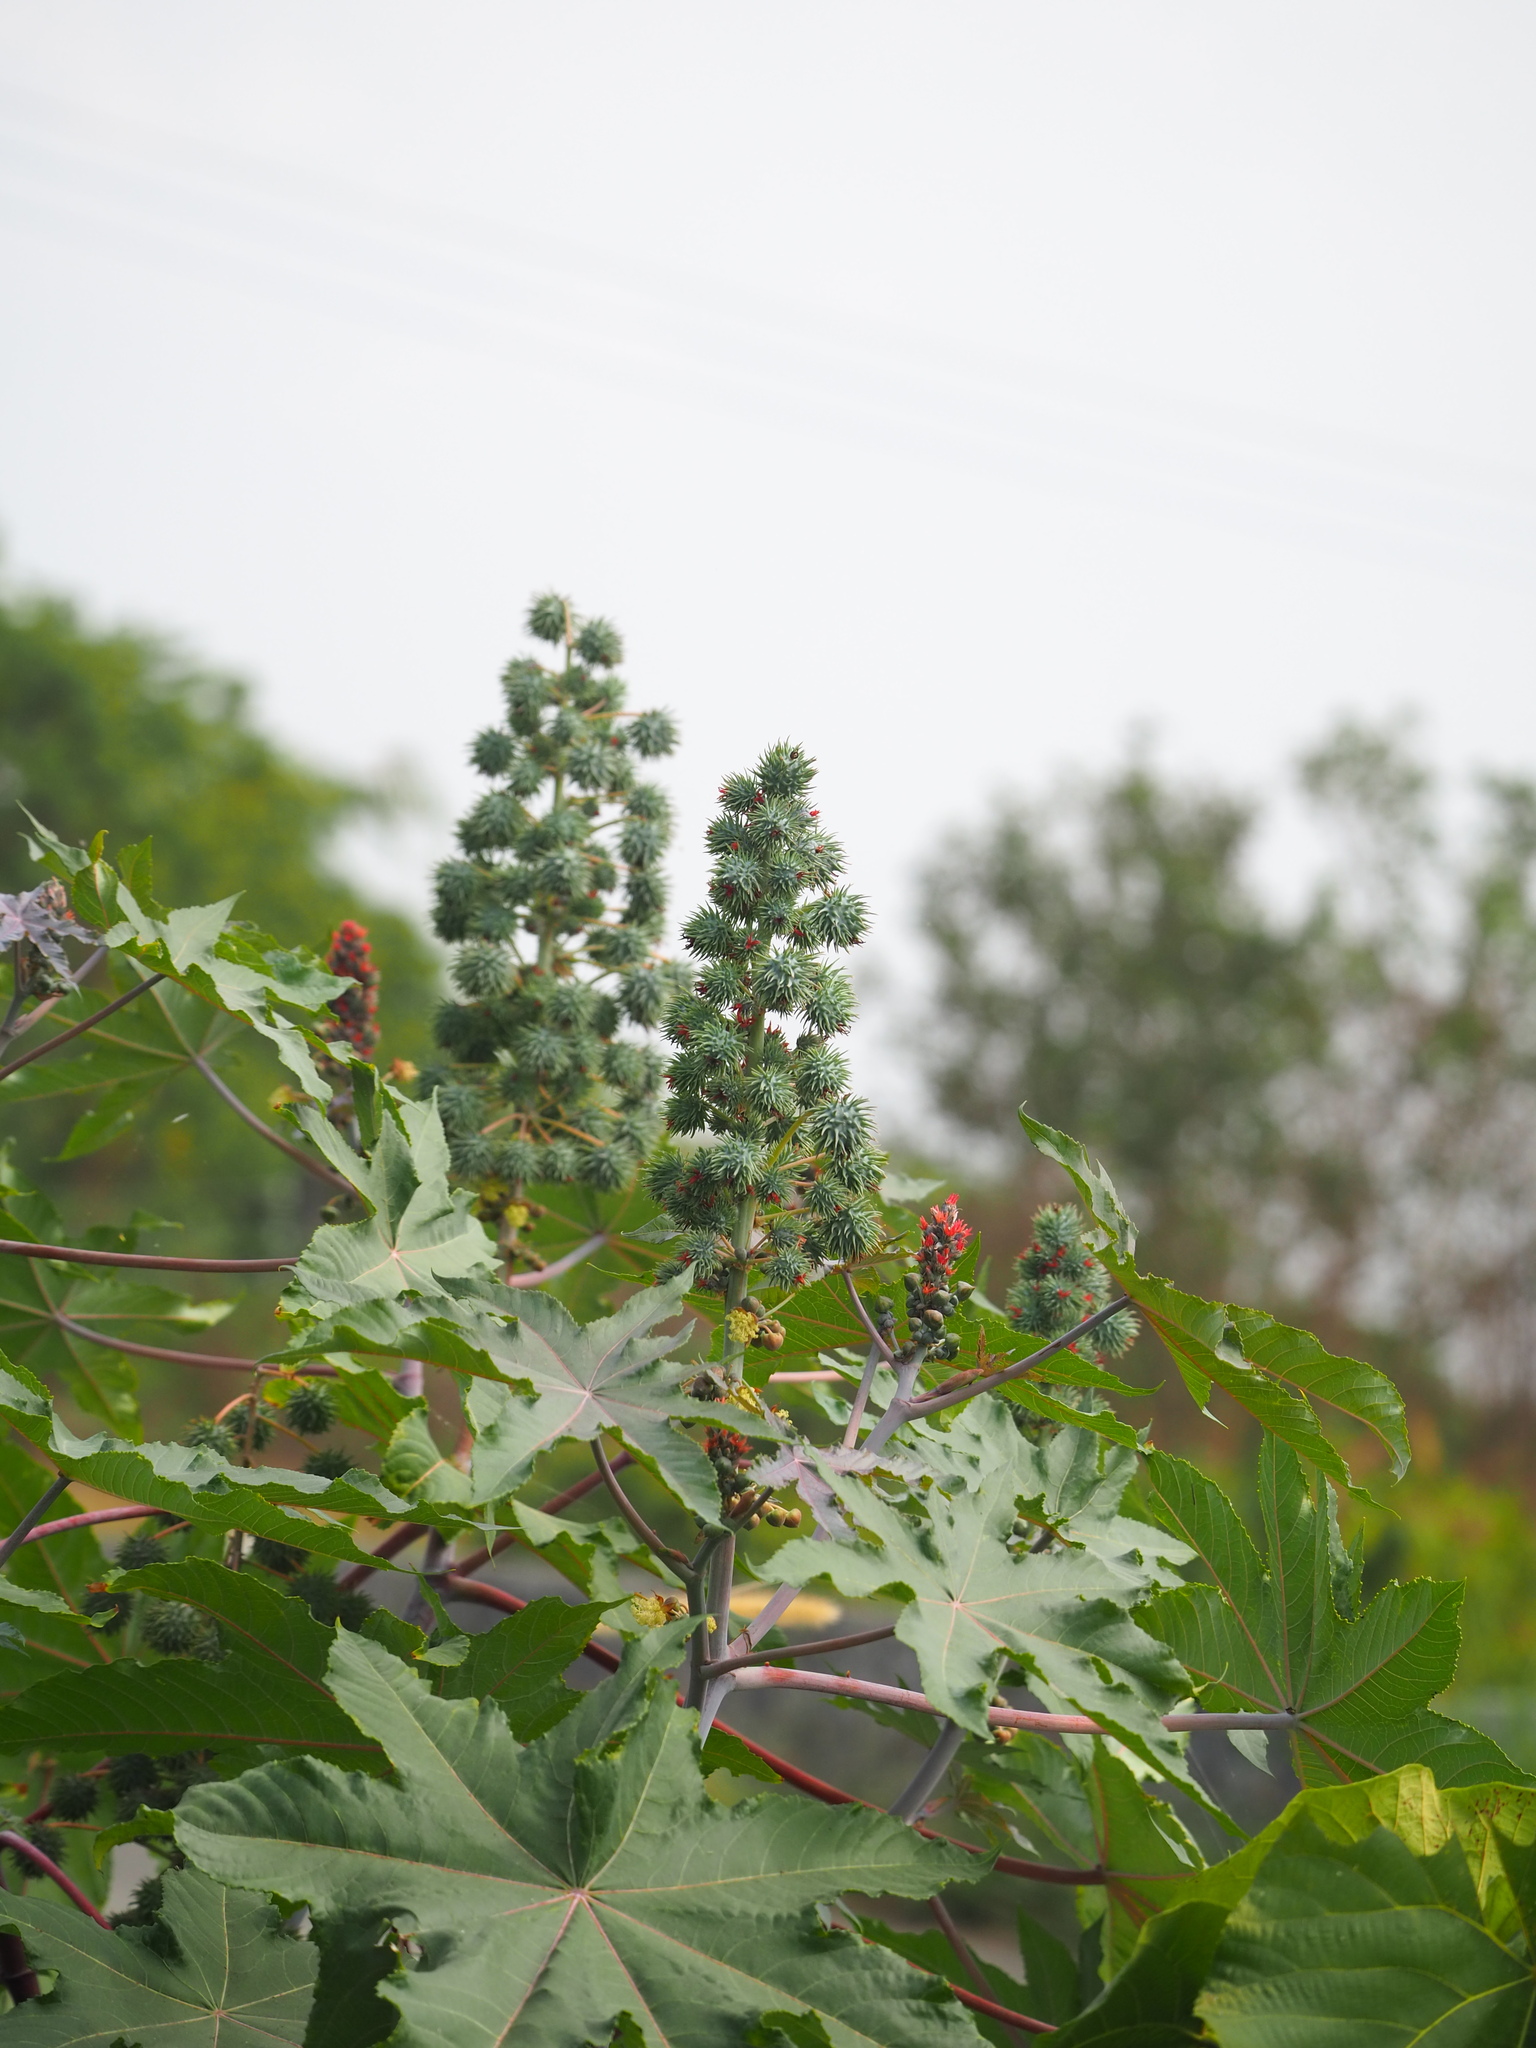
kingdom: Plantae
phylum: Tracheophyta
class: Magnoliopsida
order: Malpighiales
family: Euphorbiaceae
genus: Ricinus
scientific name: Ricinus communis
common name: Castor-oil-plant
